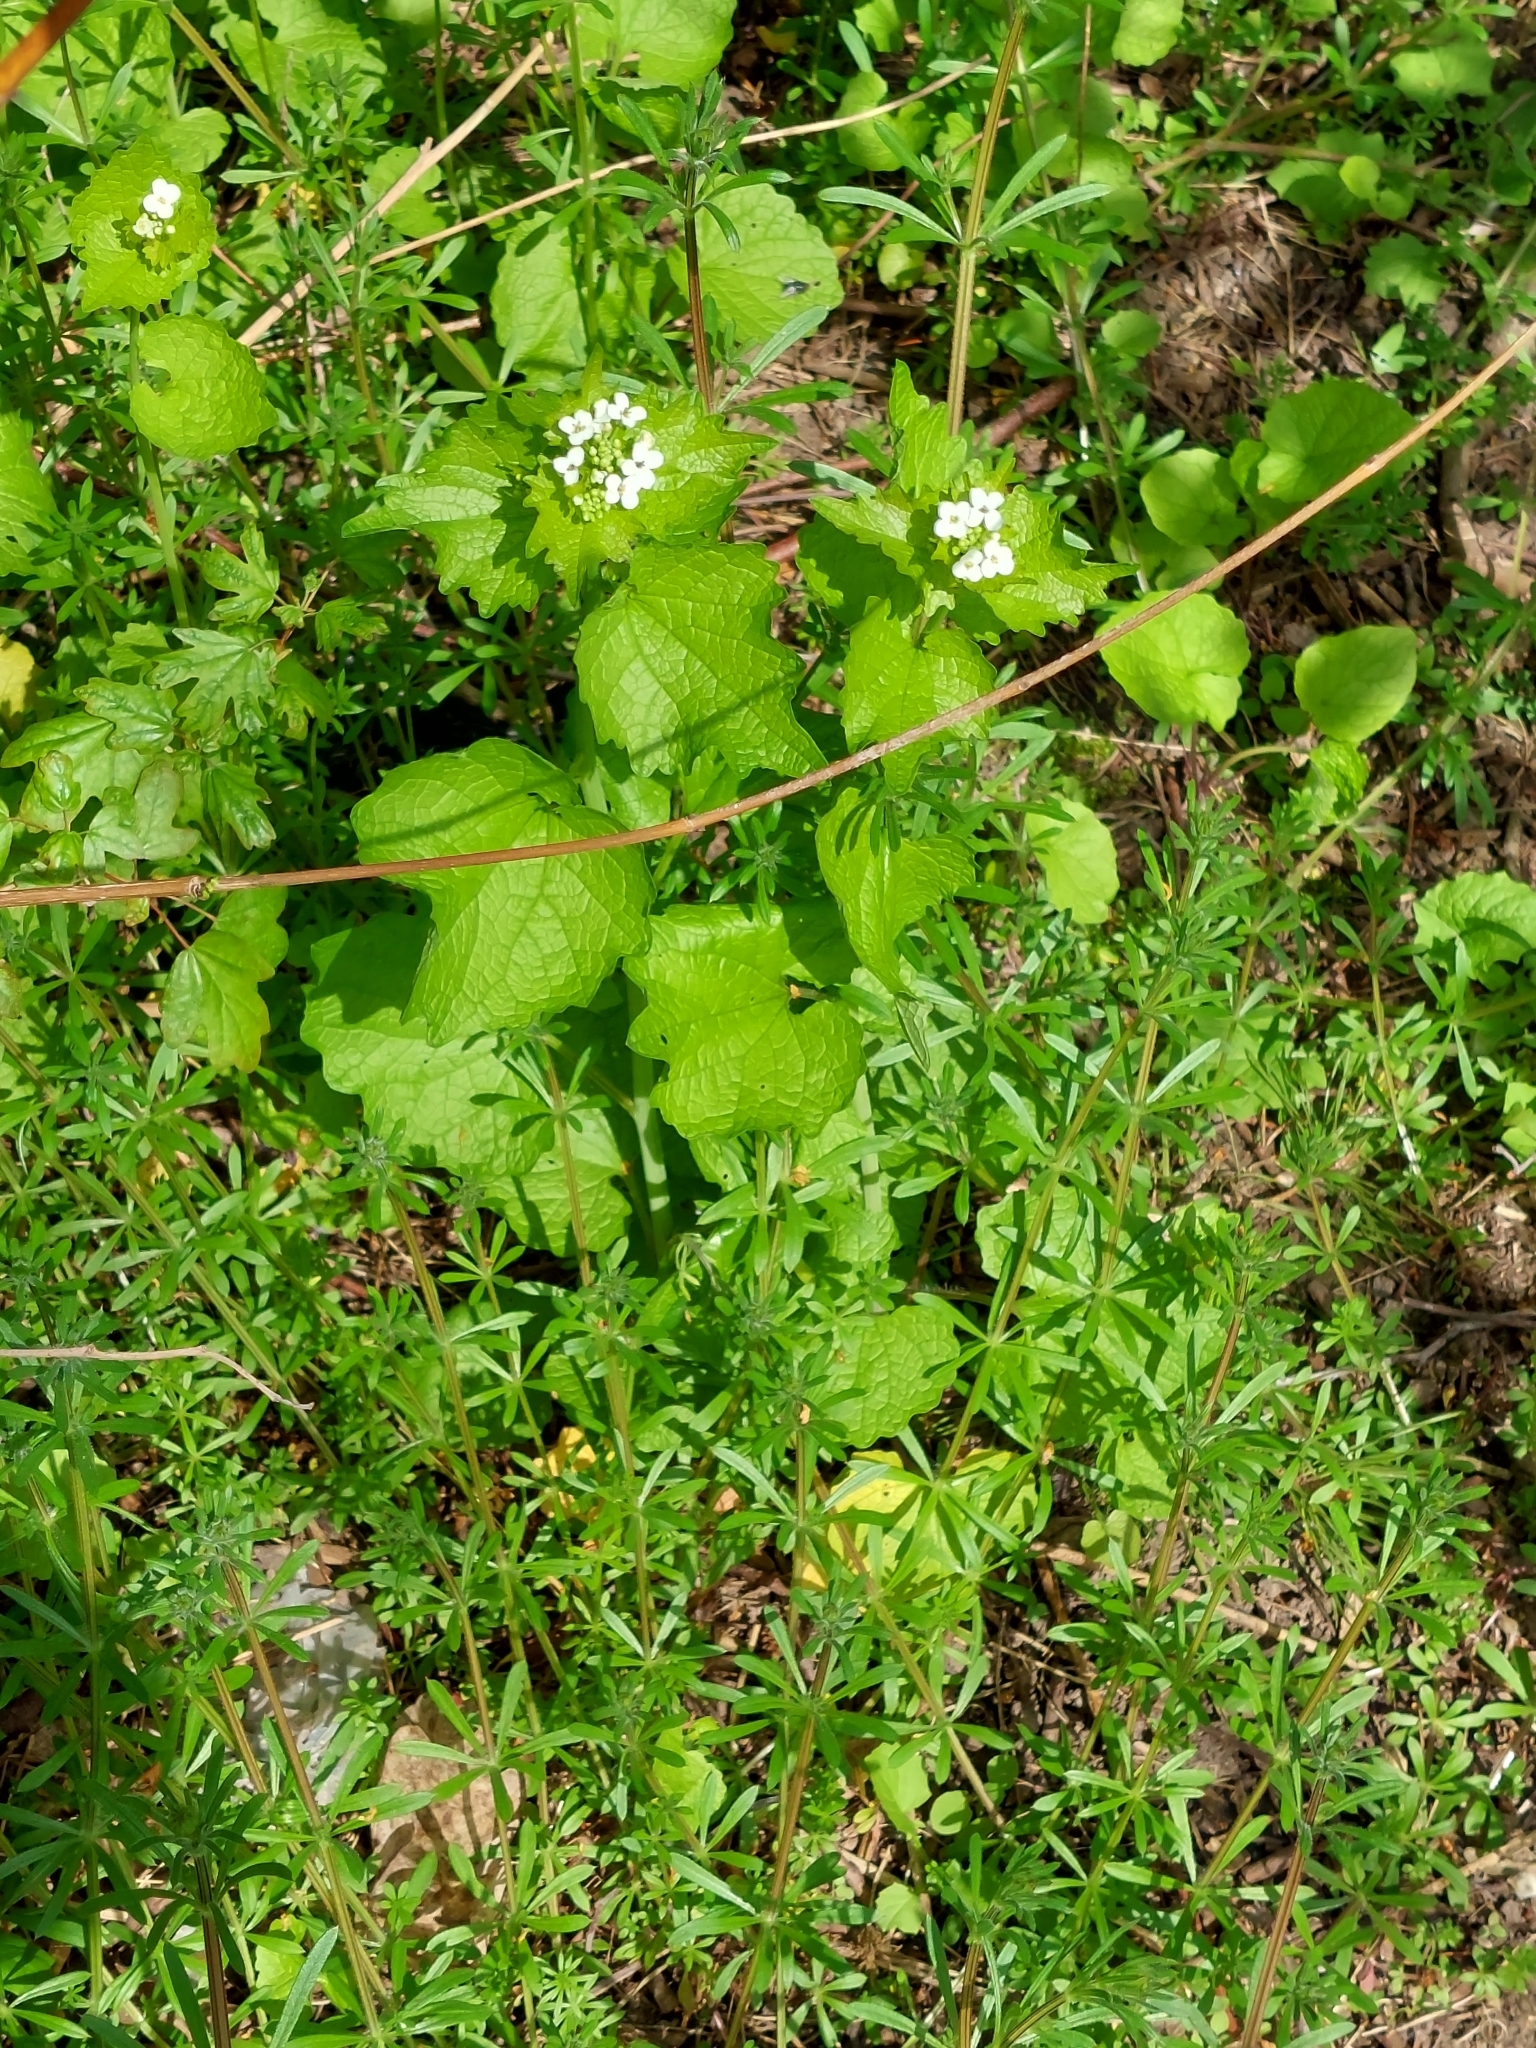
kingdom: Plantae
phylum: Tracheophyta
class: Magnoliopsida
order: Brassicales
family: Brassicaceae
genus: Alliaria
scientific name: Alliaria petiolata
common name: Garlic mustard
